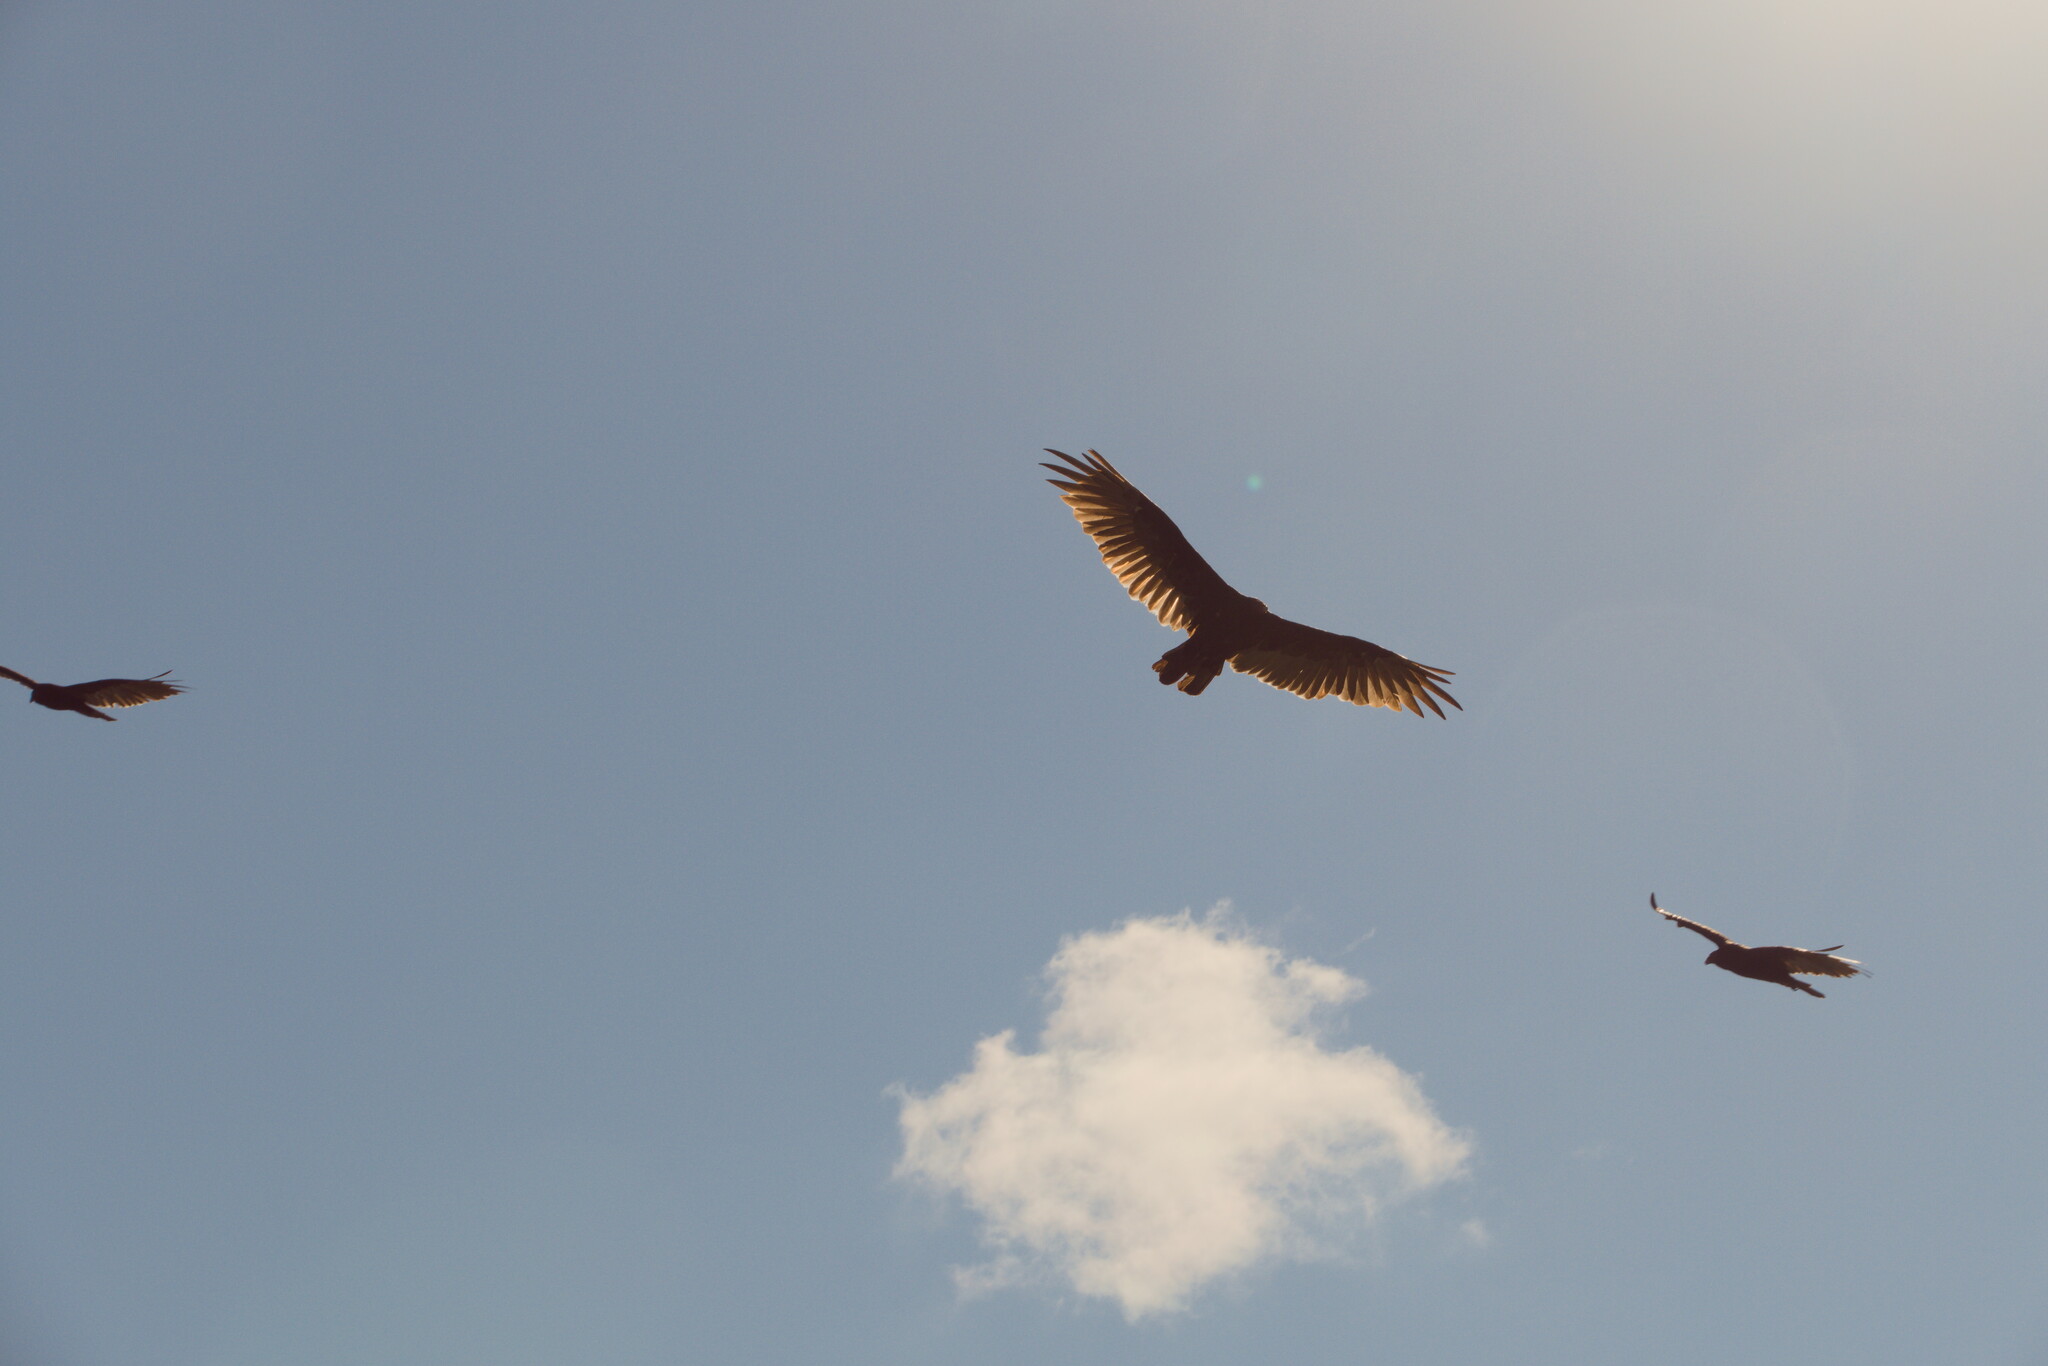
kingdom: Animalia
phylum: Chordata
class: Aves
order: Accipitriformes
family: Cathartidae
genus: Cathartes
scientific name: Cathartes aura
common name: Turkey vulture
